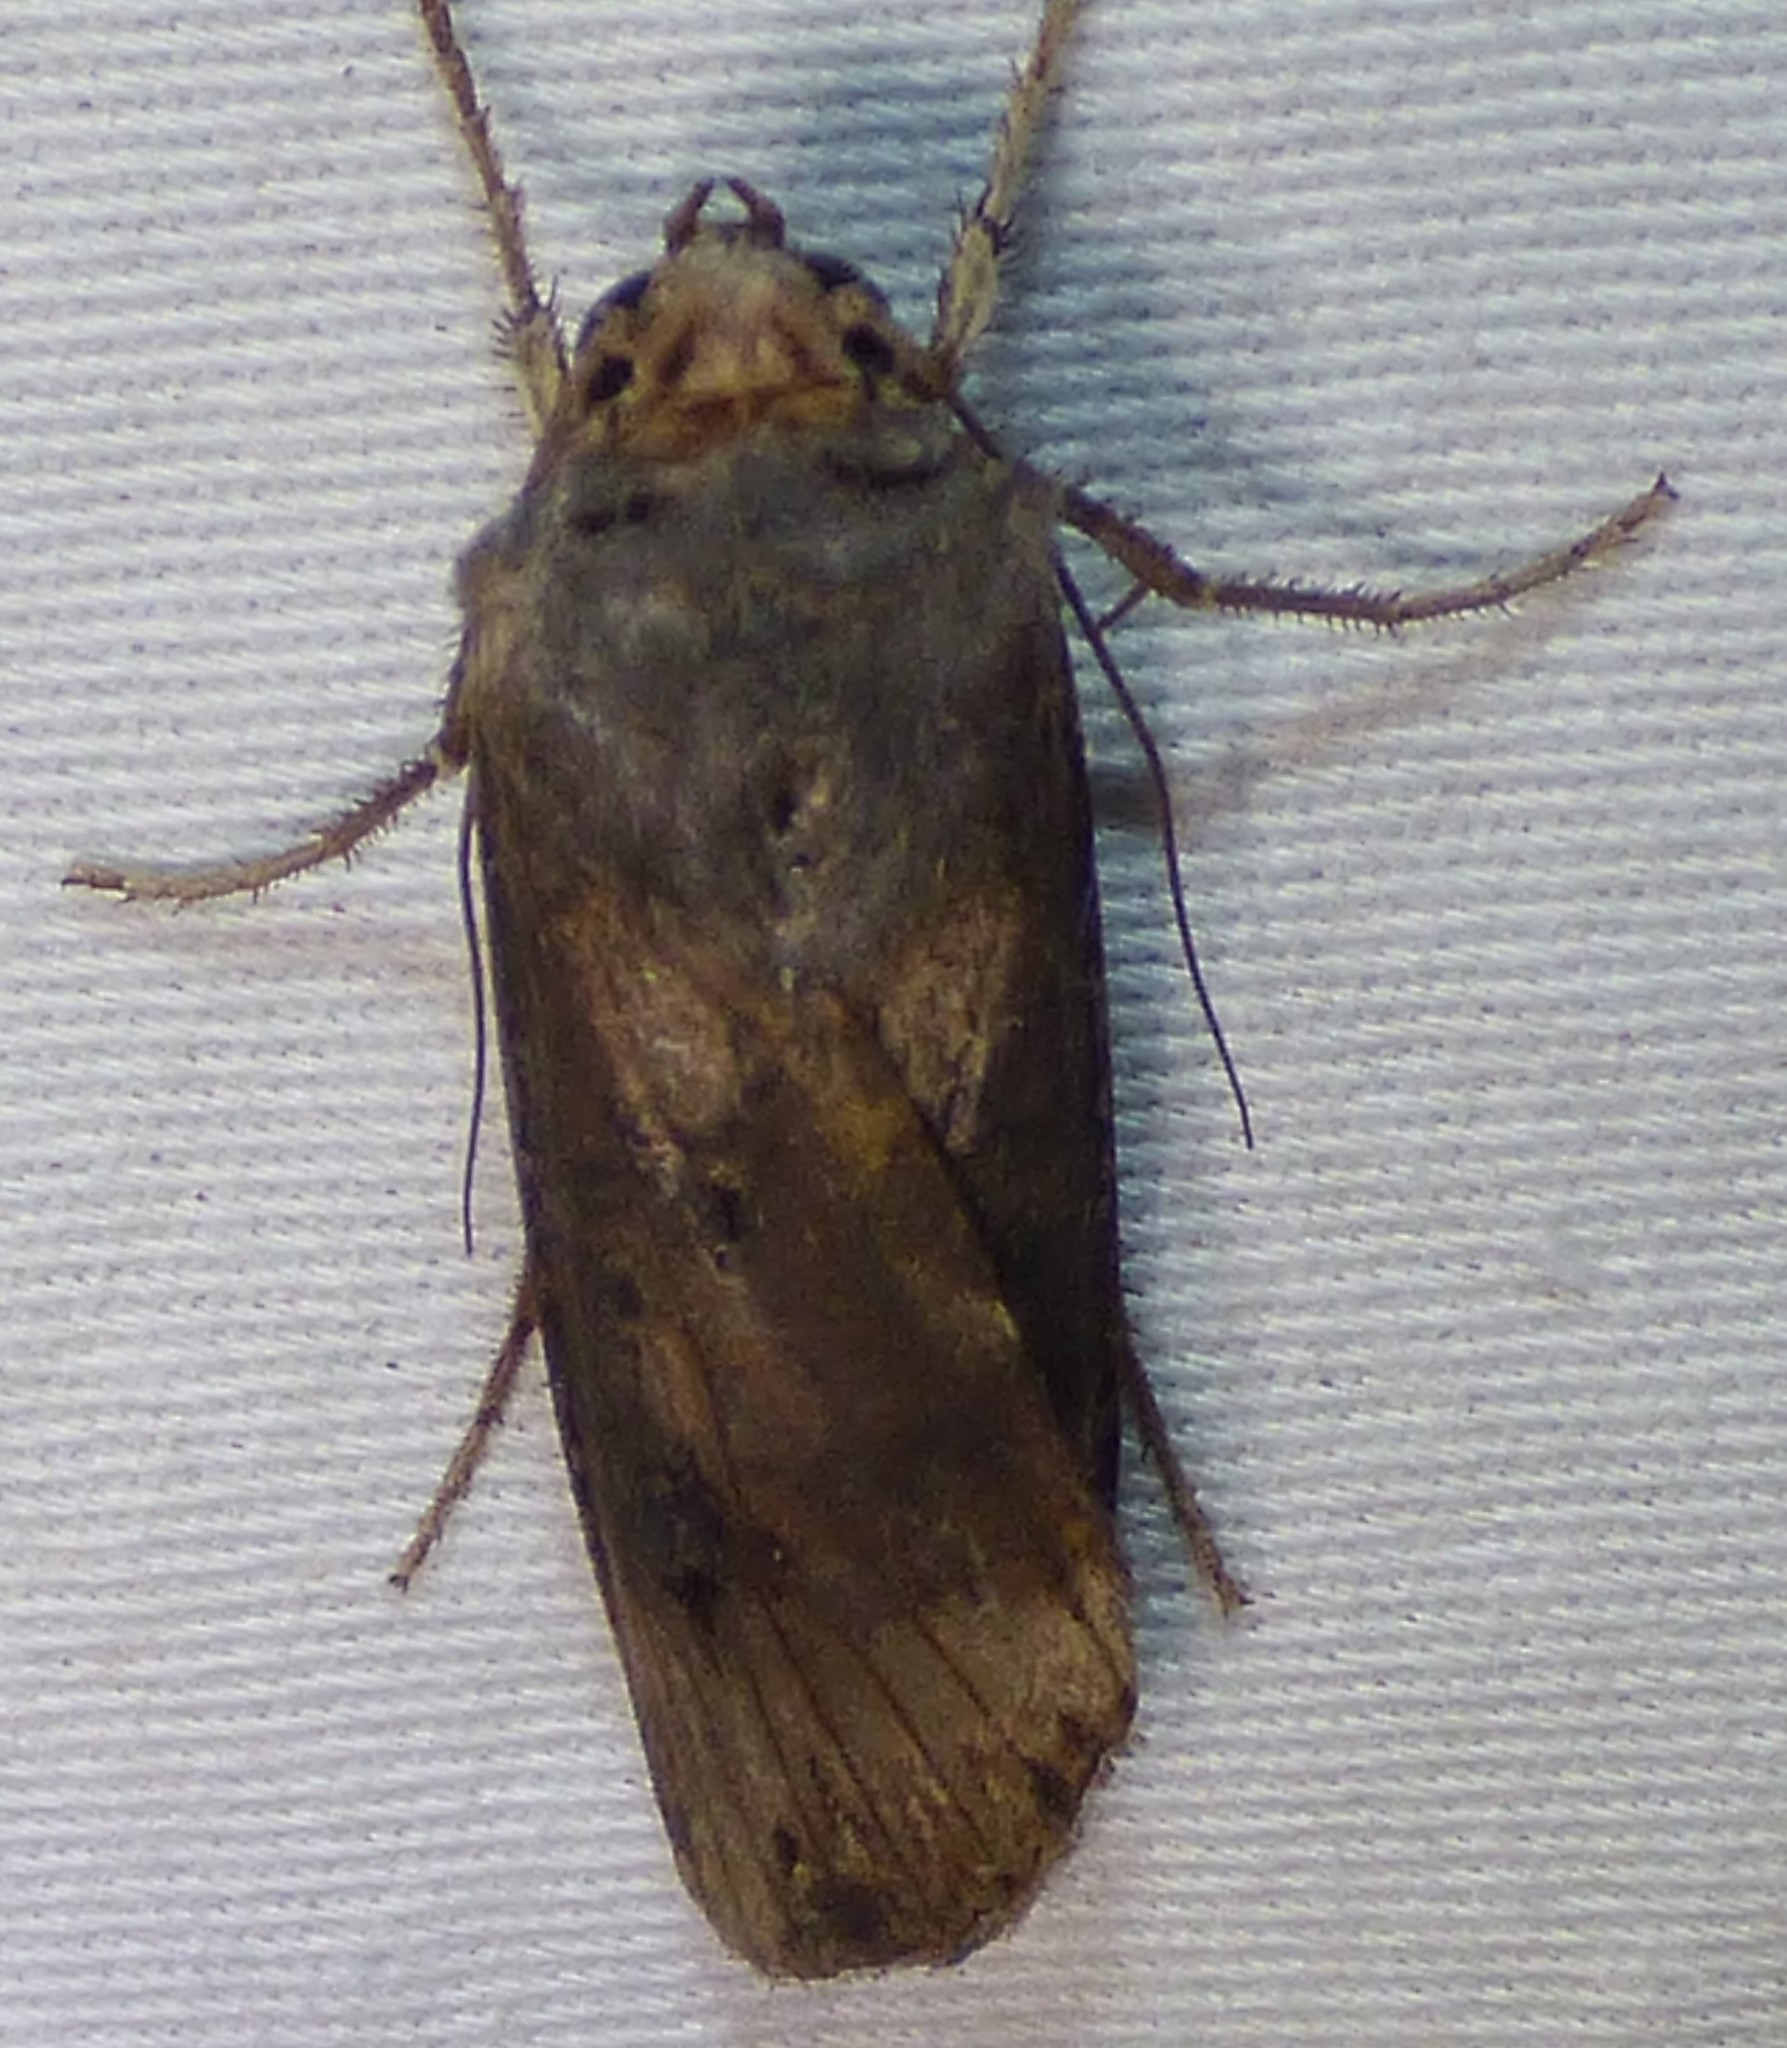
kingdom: Animalia
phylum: Arthropoda
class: Insecta
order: Lepidoptera
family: Noctuidae
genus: Agrotis
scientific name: Agrotis ipsilon
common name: Dark sword-grass
